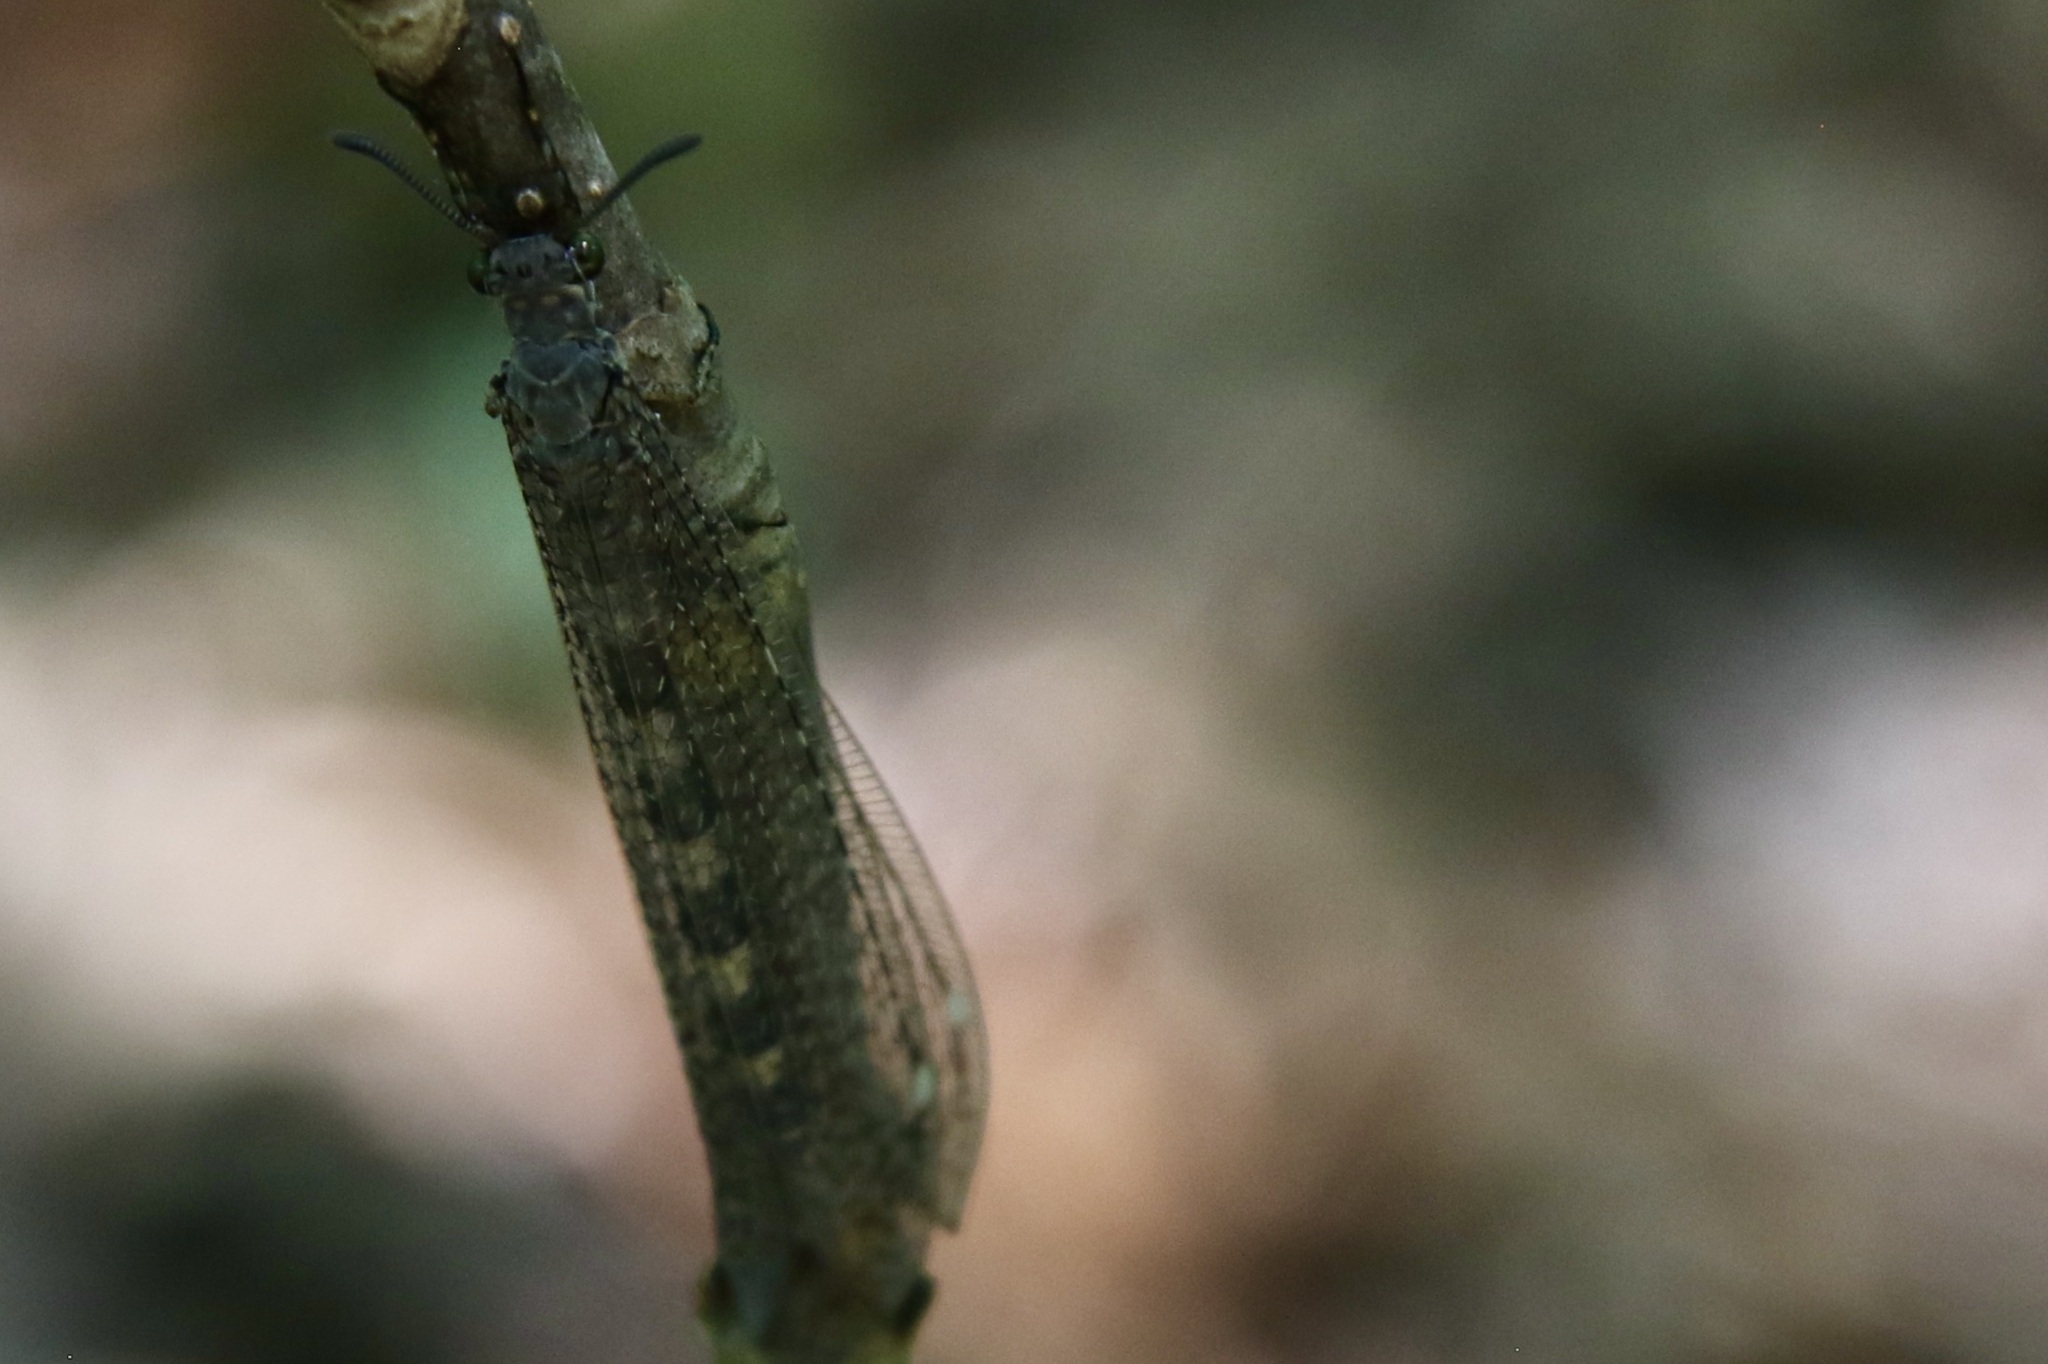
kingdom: Animalia
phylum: Arthropoda
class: Insecta
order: Neuroptera
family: Myrmeleontidae
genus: Myrmeleon
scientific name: Myrmeleon immaculatus
